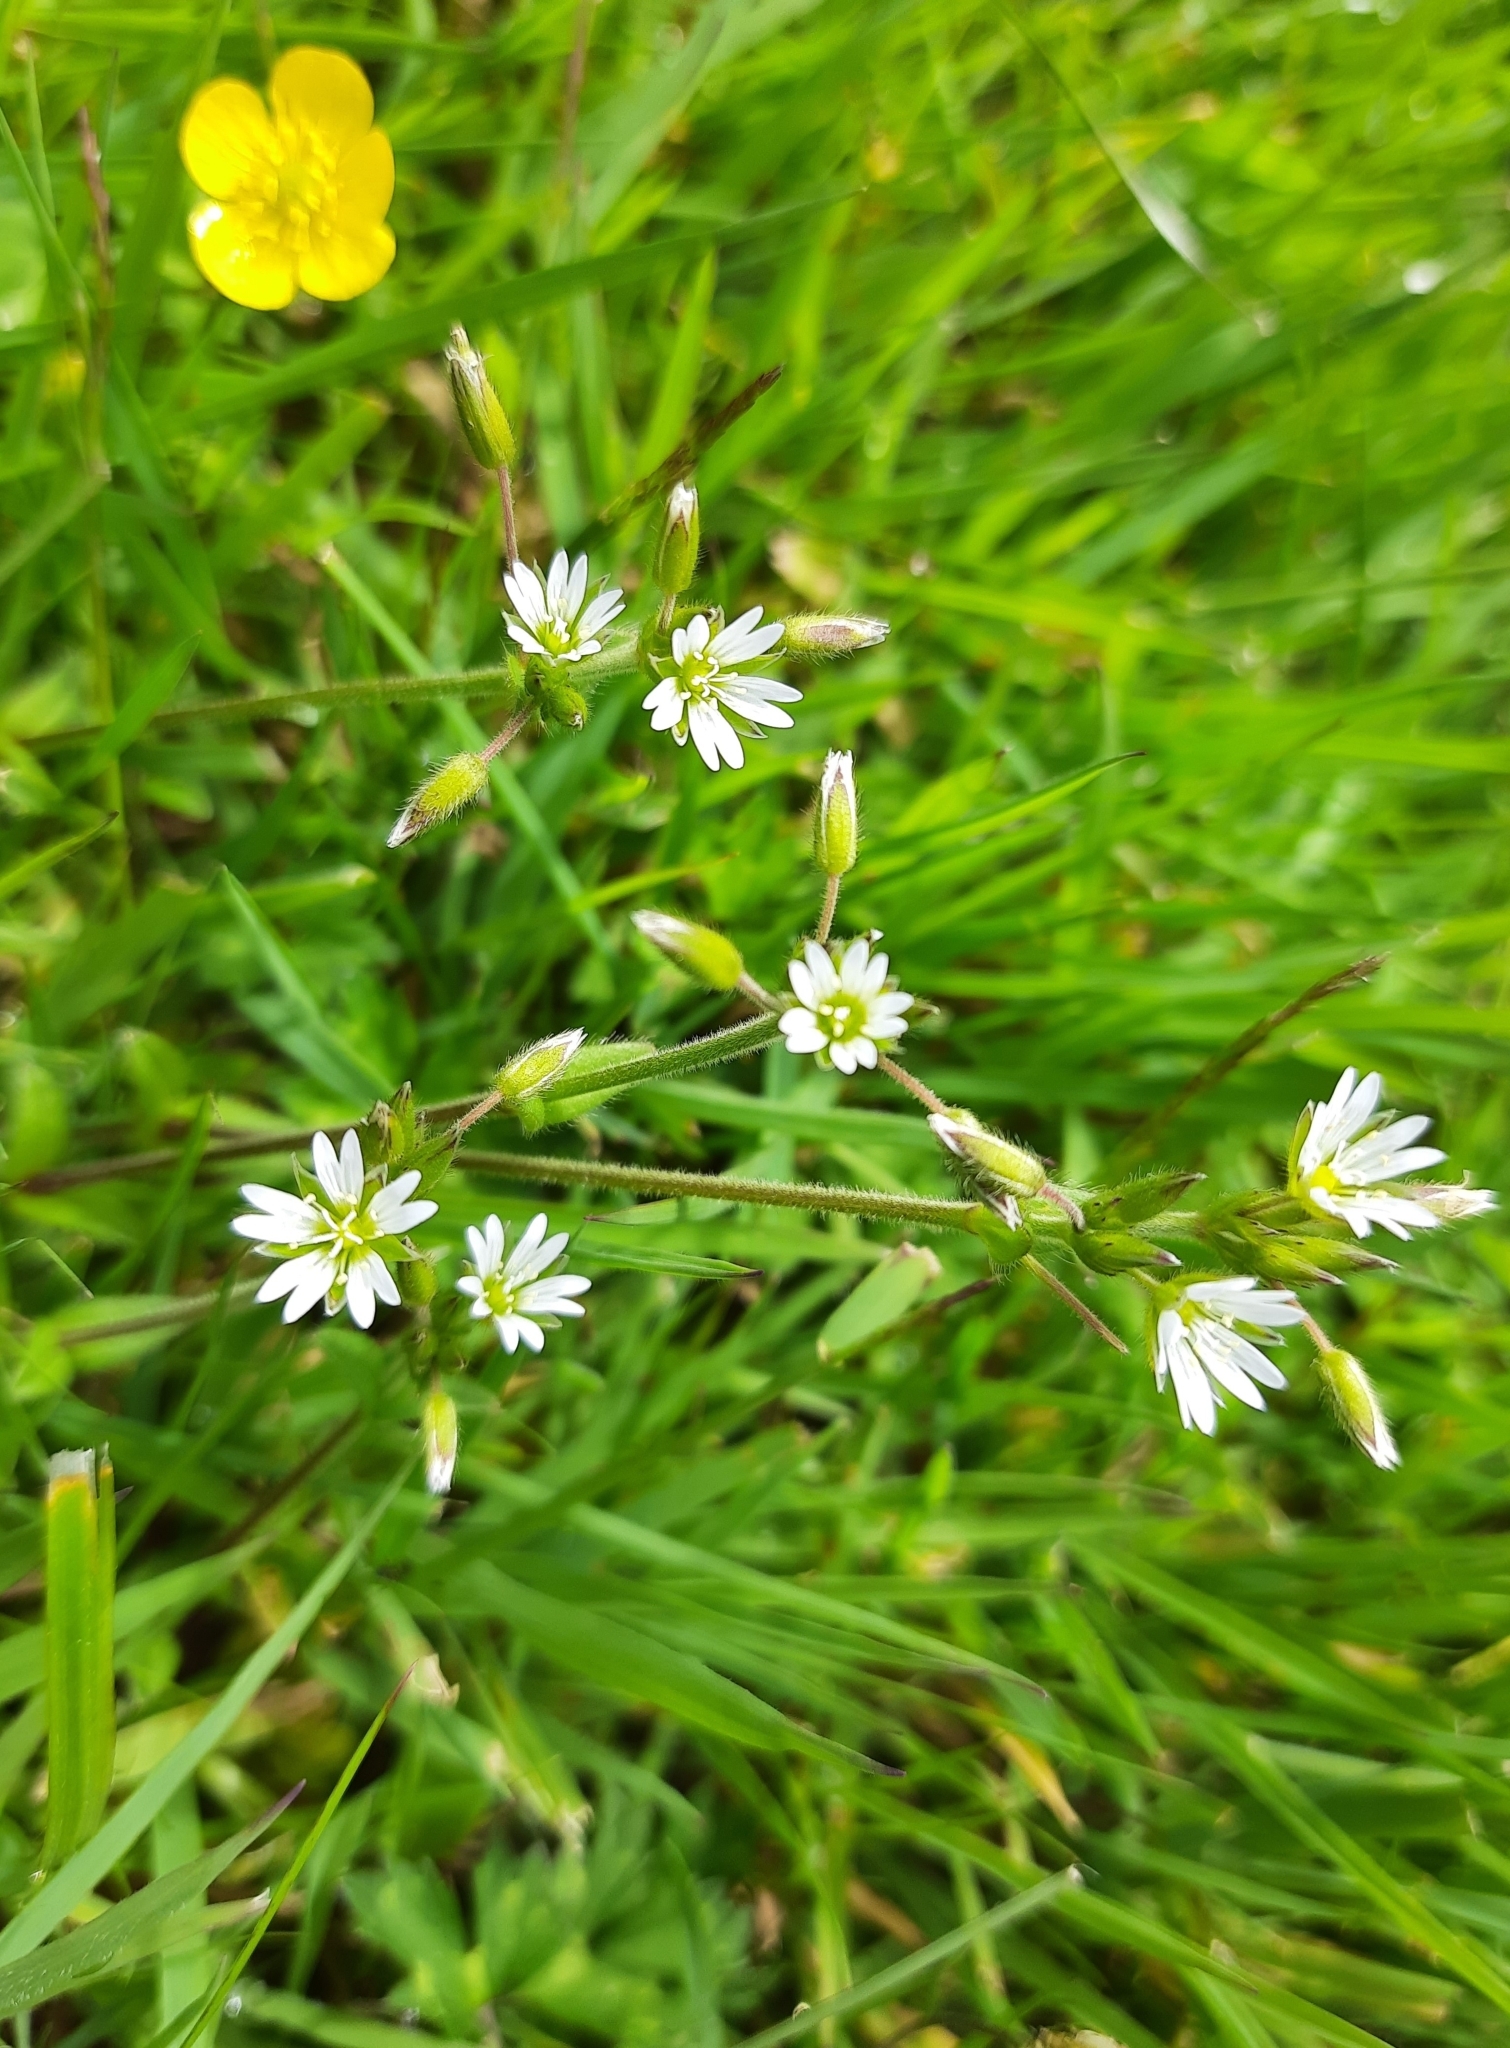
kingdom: Plantae
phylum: Tracheophyta
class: Magnoliopsida
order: Caryophyllales
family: Caryophyllaceae
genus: Cerastium
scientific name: Cerastium fontanum
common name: Common mouse-ear
